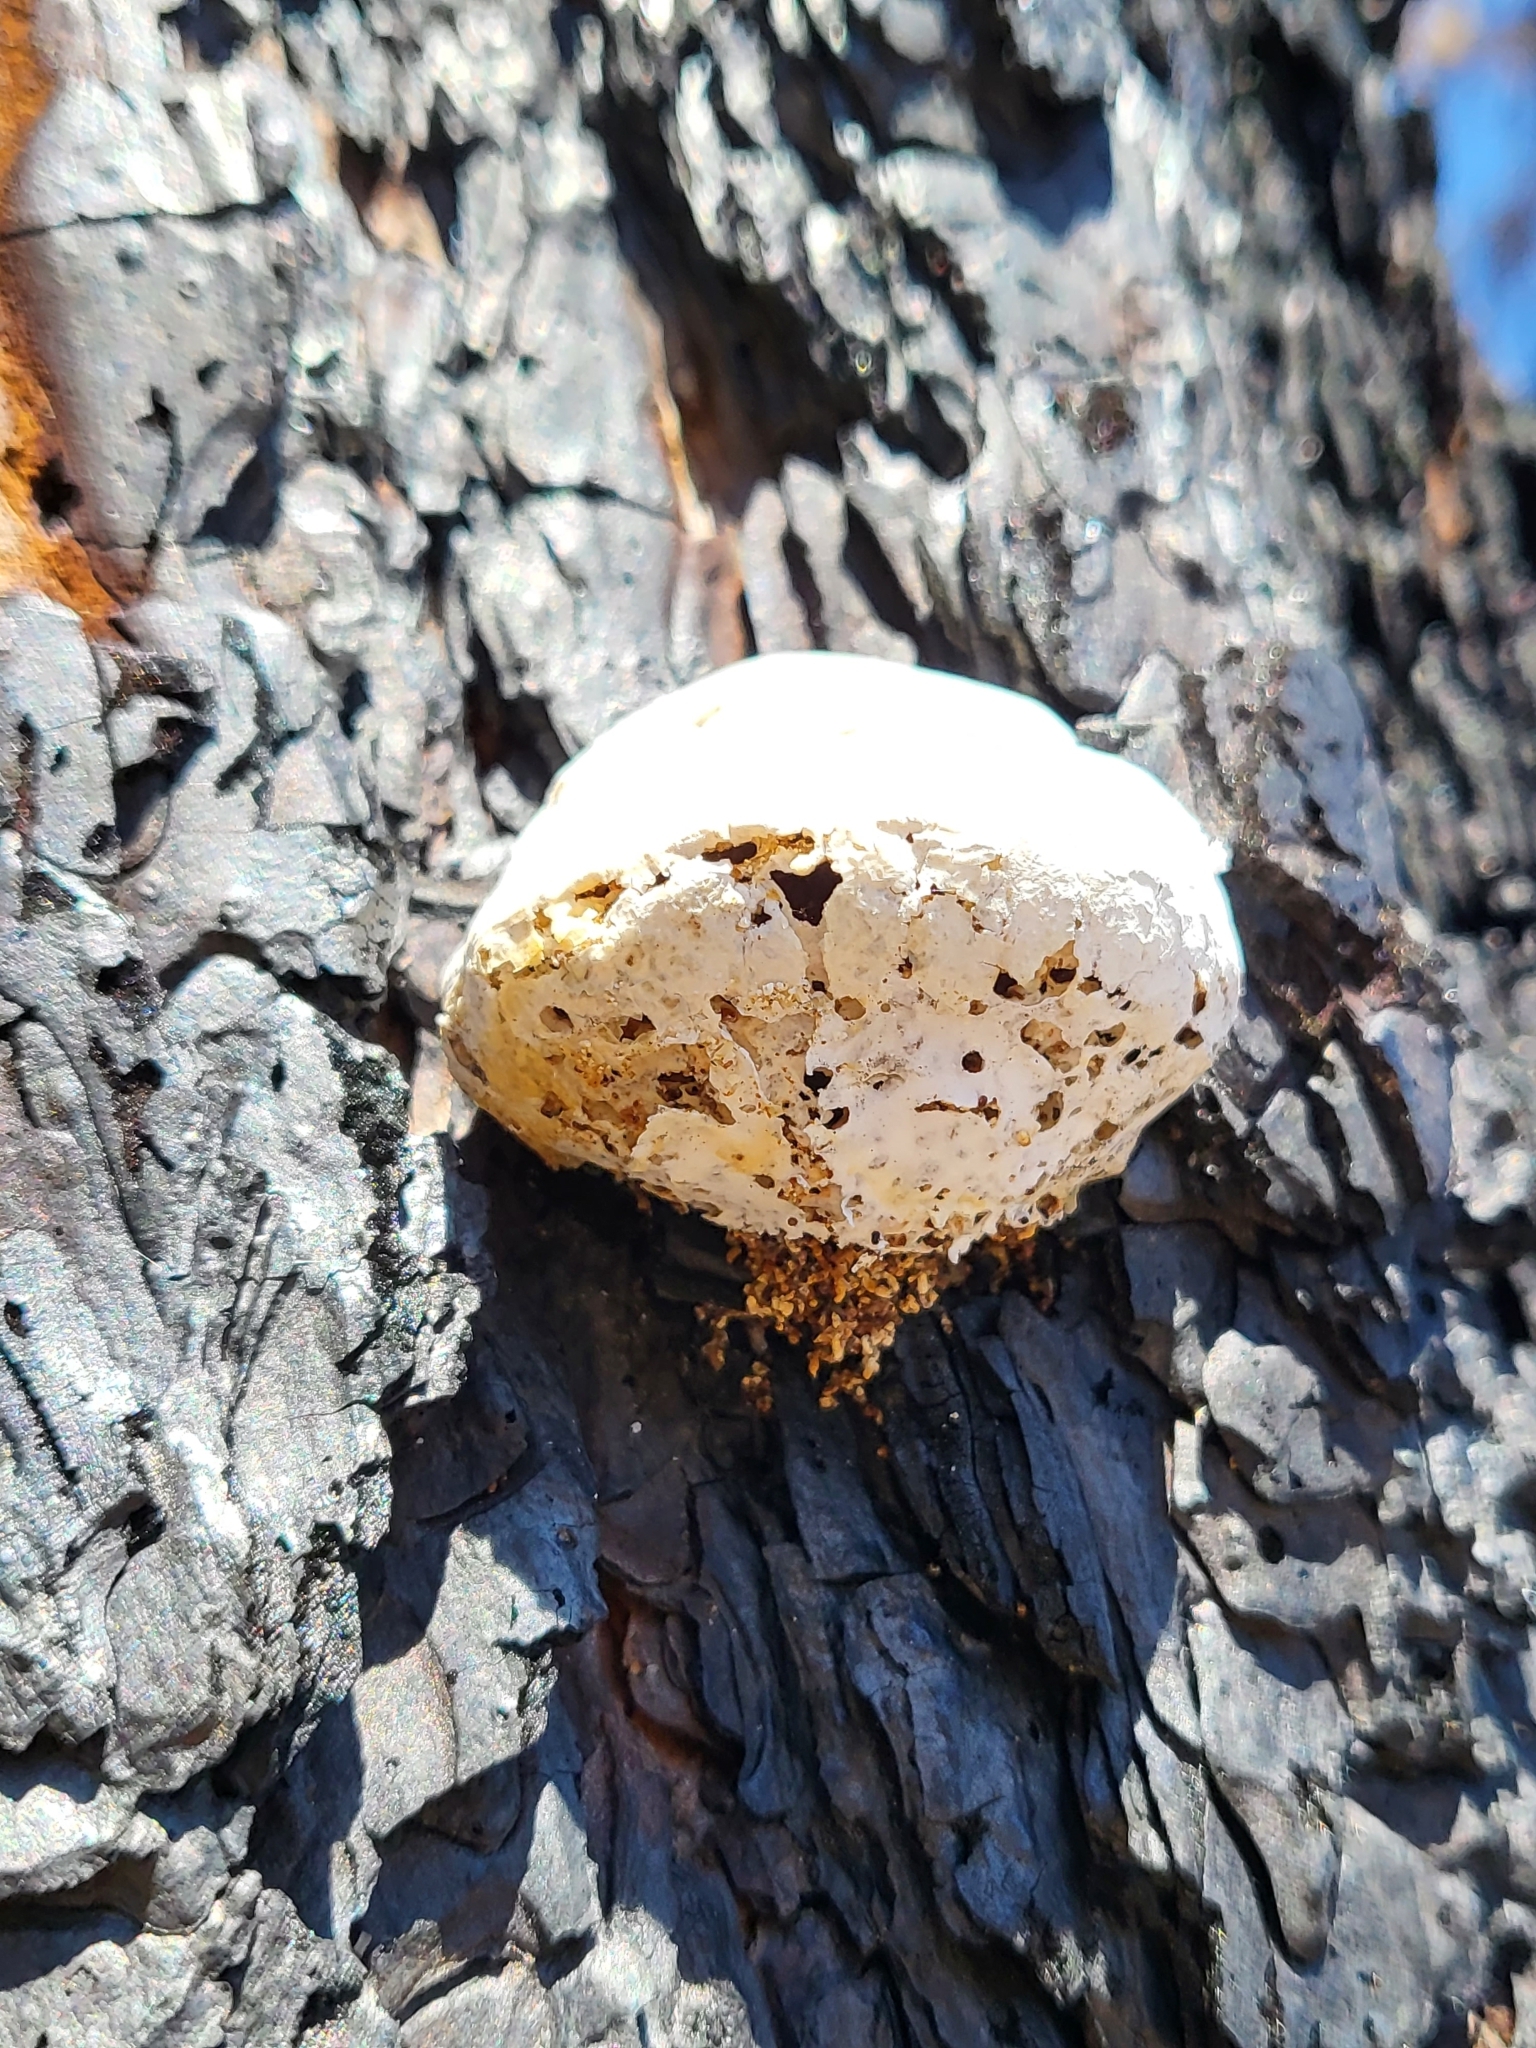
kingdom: Fungi
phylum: Basidiomycota
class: Agaricomycetes
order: Polyporales
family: Polyporaceae
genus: Cryptoporus
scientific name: Cryptoporus volvatus
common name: Veiled polypore
